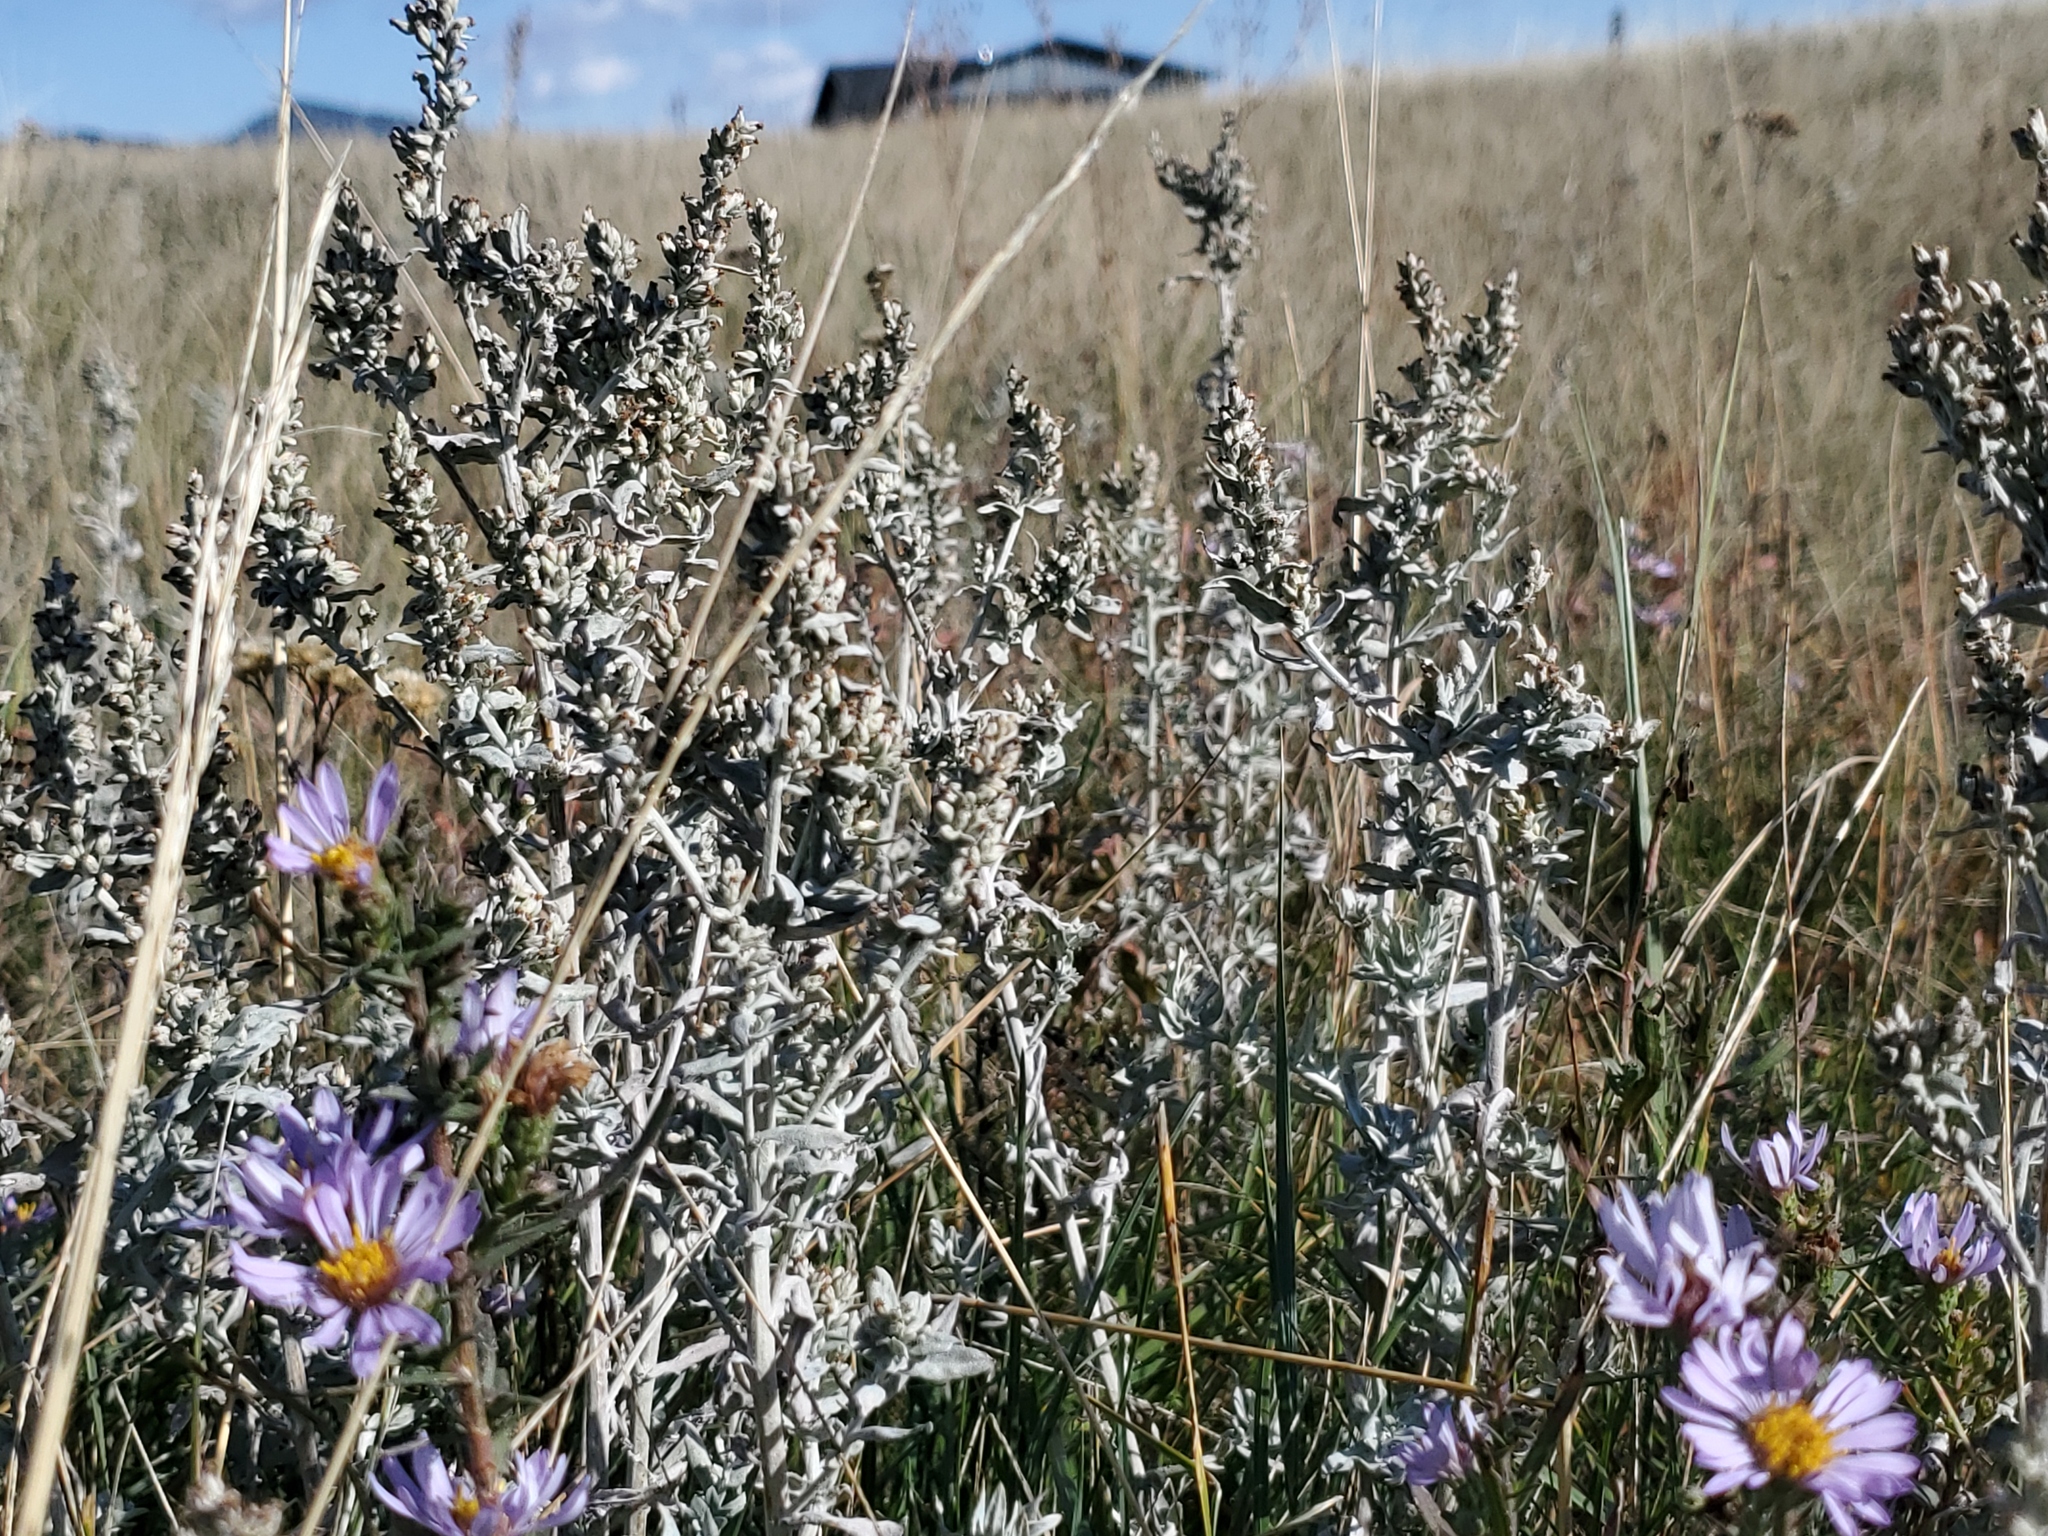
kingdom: Plantae
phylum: Tracheophyta
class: Magnoliopsida
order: Asterales
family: Asteraceae
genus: Symphyotrichum
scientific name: Symphyotrichum ascendens
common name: Intermountain aster
